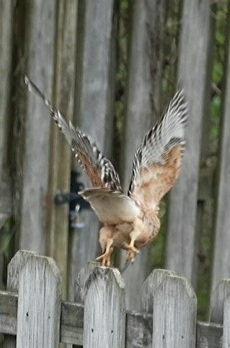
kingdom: Animalia
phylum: Chordata
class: Aves
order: Accipitriformes
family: Accipitridae
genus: Buteo
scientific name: Buteo lineatus
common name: Red-shouldered hawk
